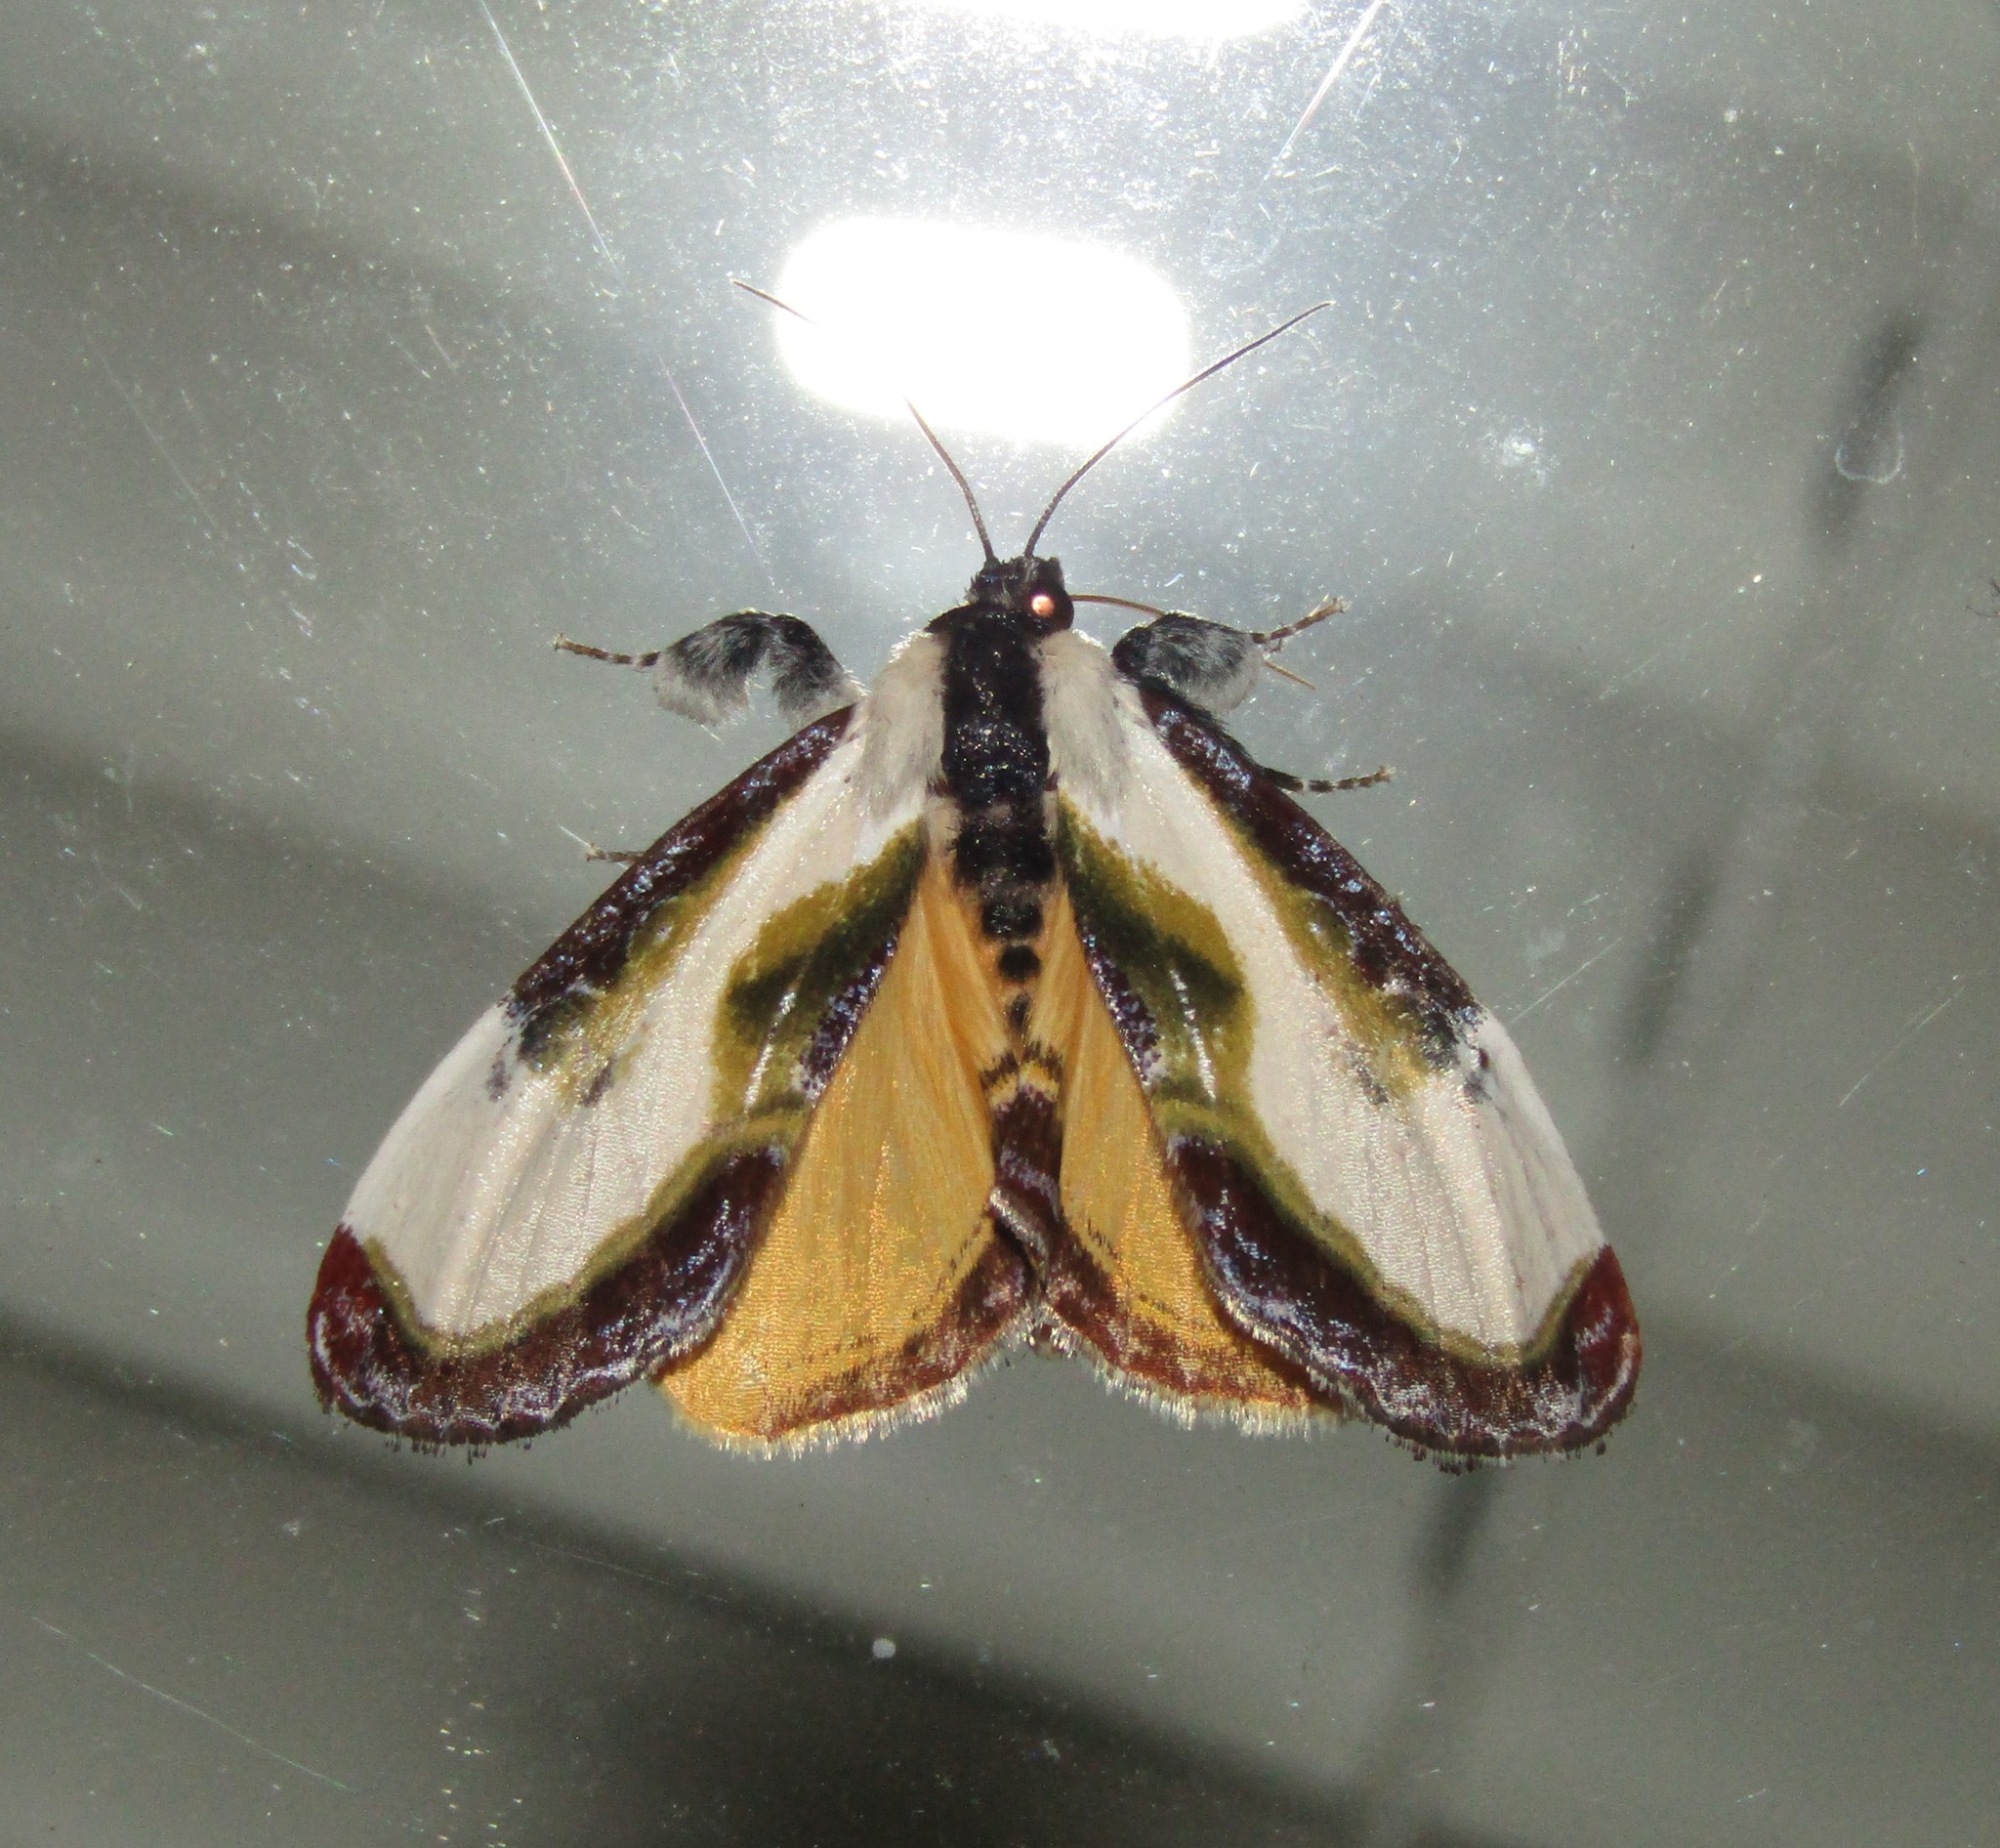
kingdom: Animalia
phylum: Arthropoda
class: Insecta
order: Lepidoptera
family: Noctuidae
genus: Eudryas
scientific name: Eudryas grata
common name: Beautiful wood-nymph
